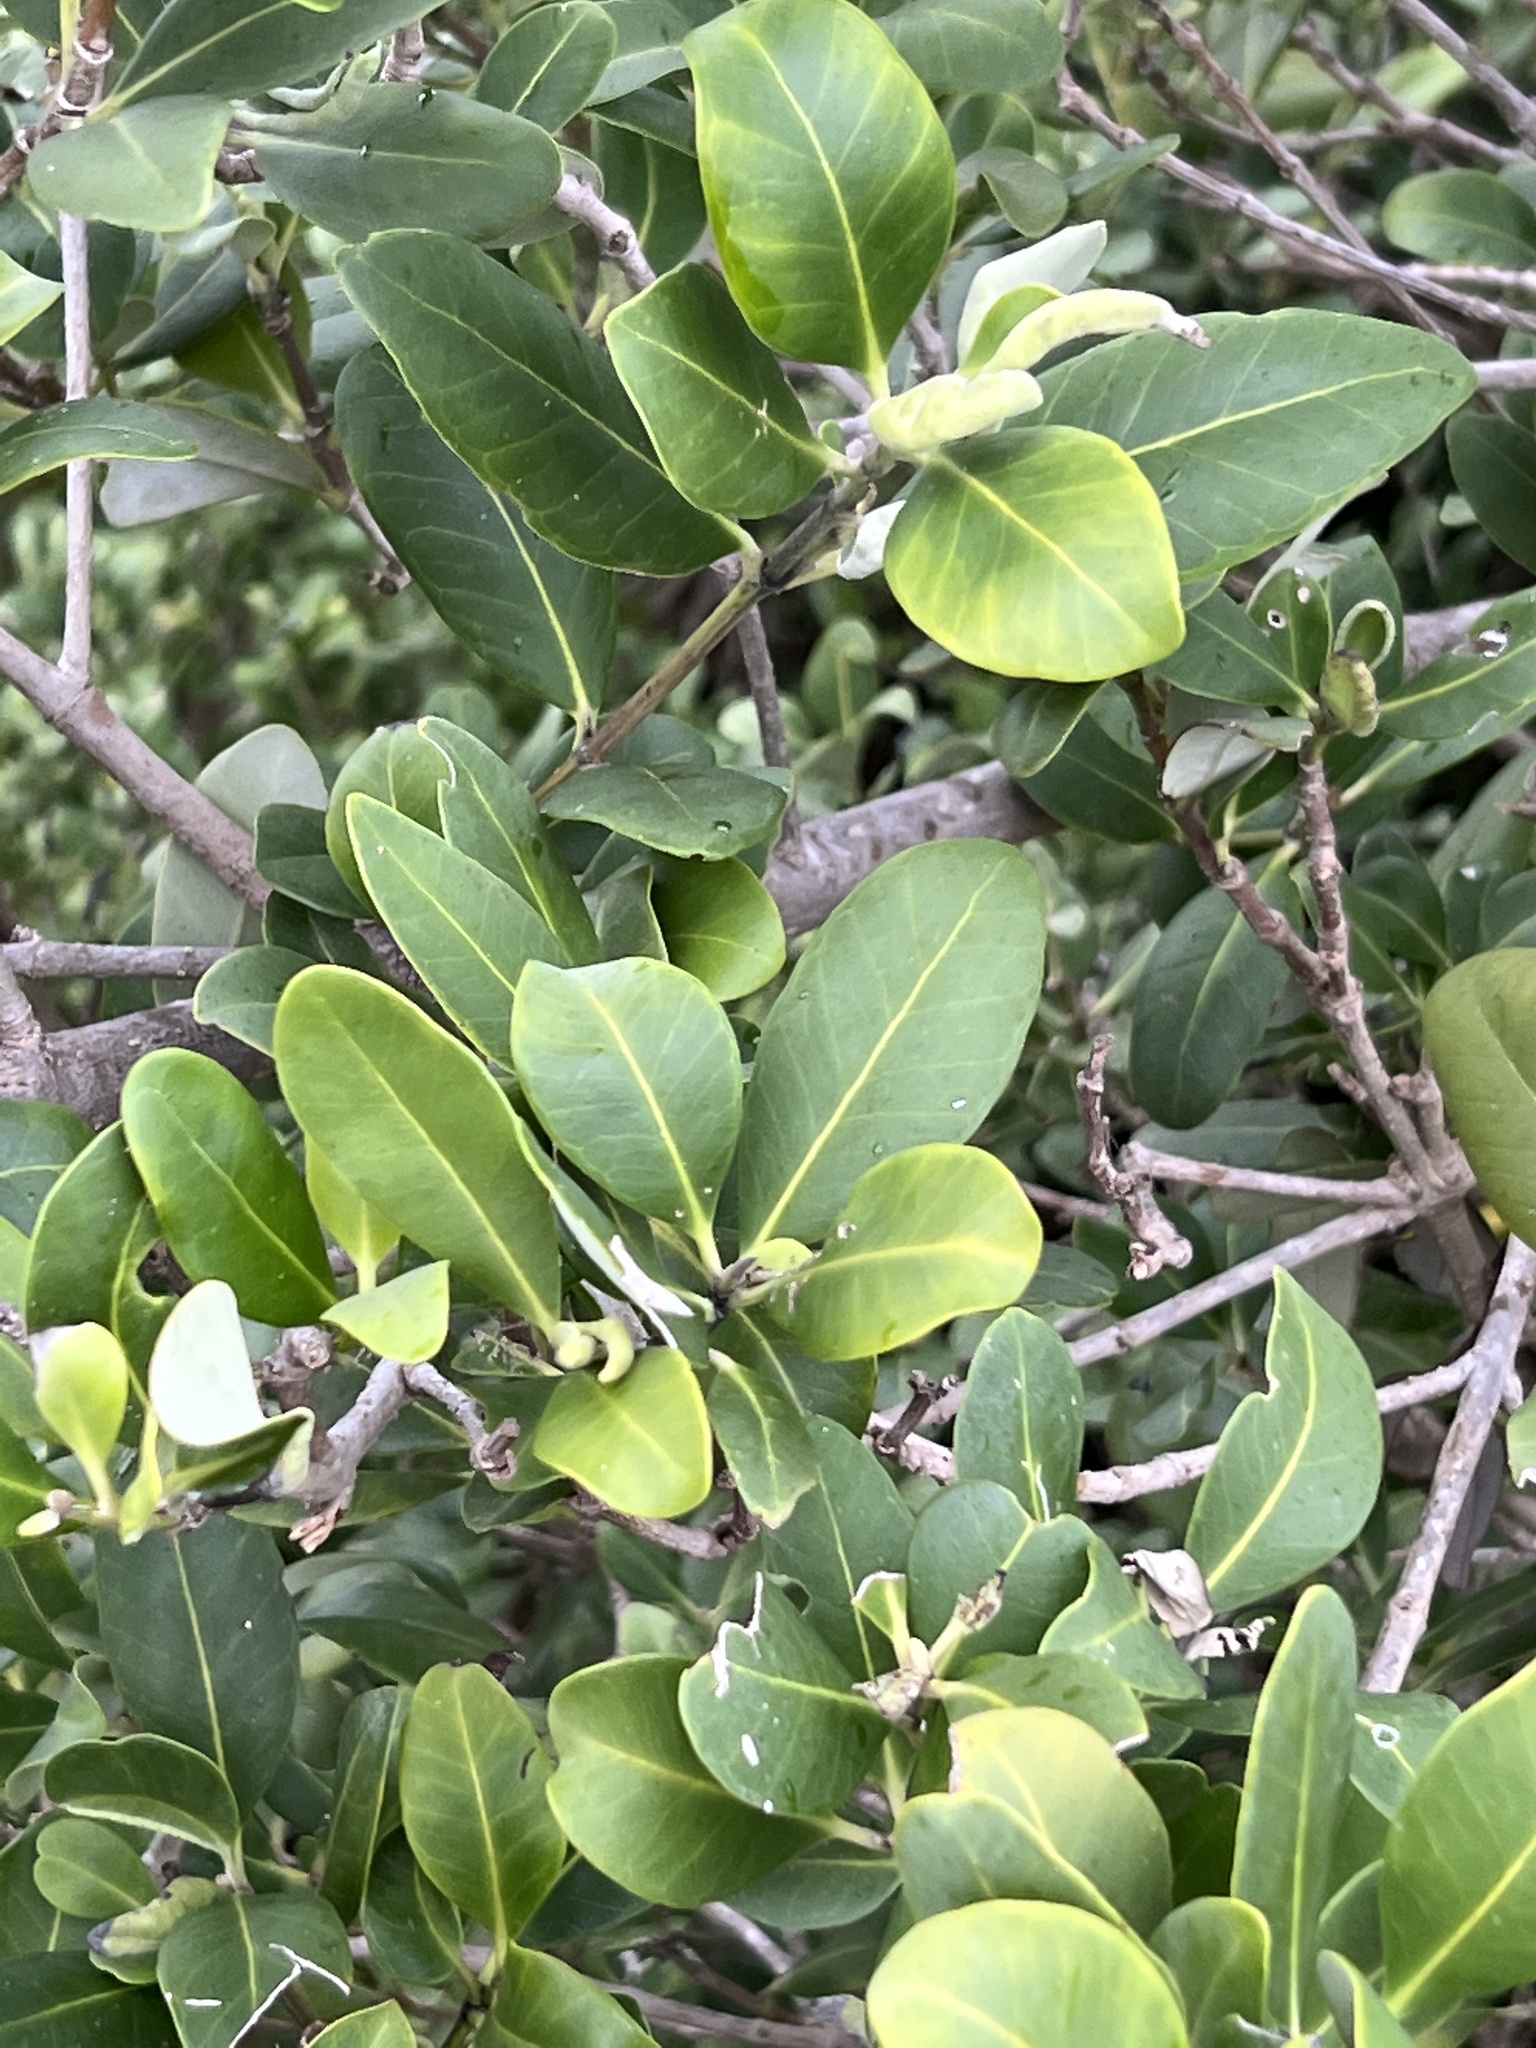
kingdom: Plantae
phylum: Tracheophyta
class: Magnoliopsida
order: Lamiales
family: Acanthaceae
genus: Avicennia
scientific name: Avicennia germinans
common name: Black mangrove
